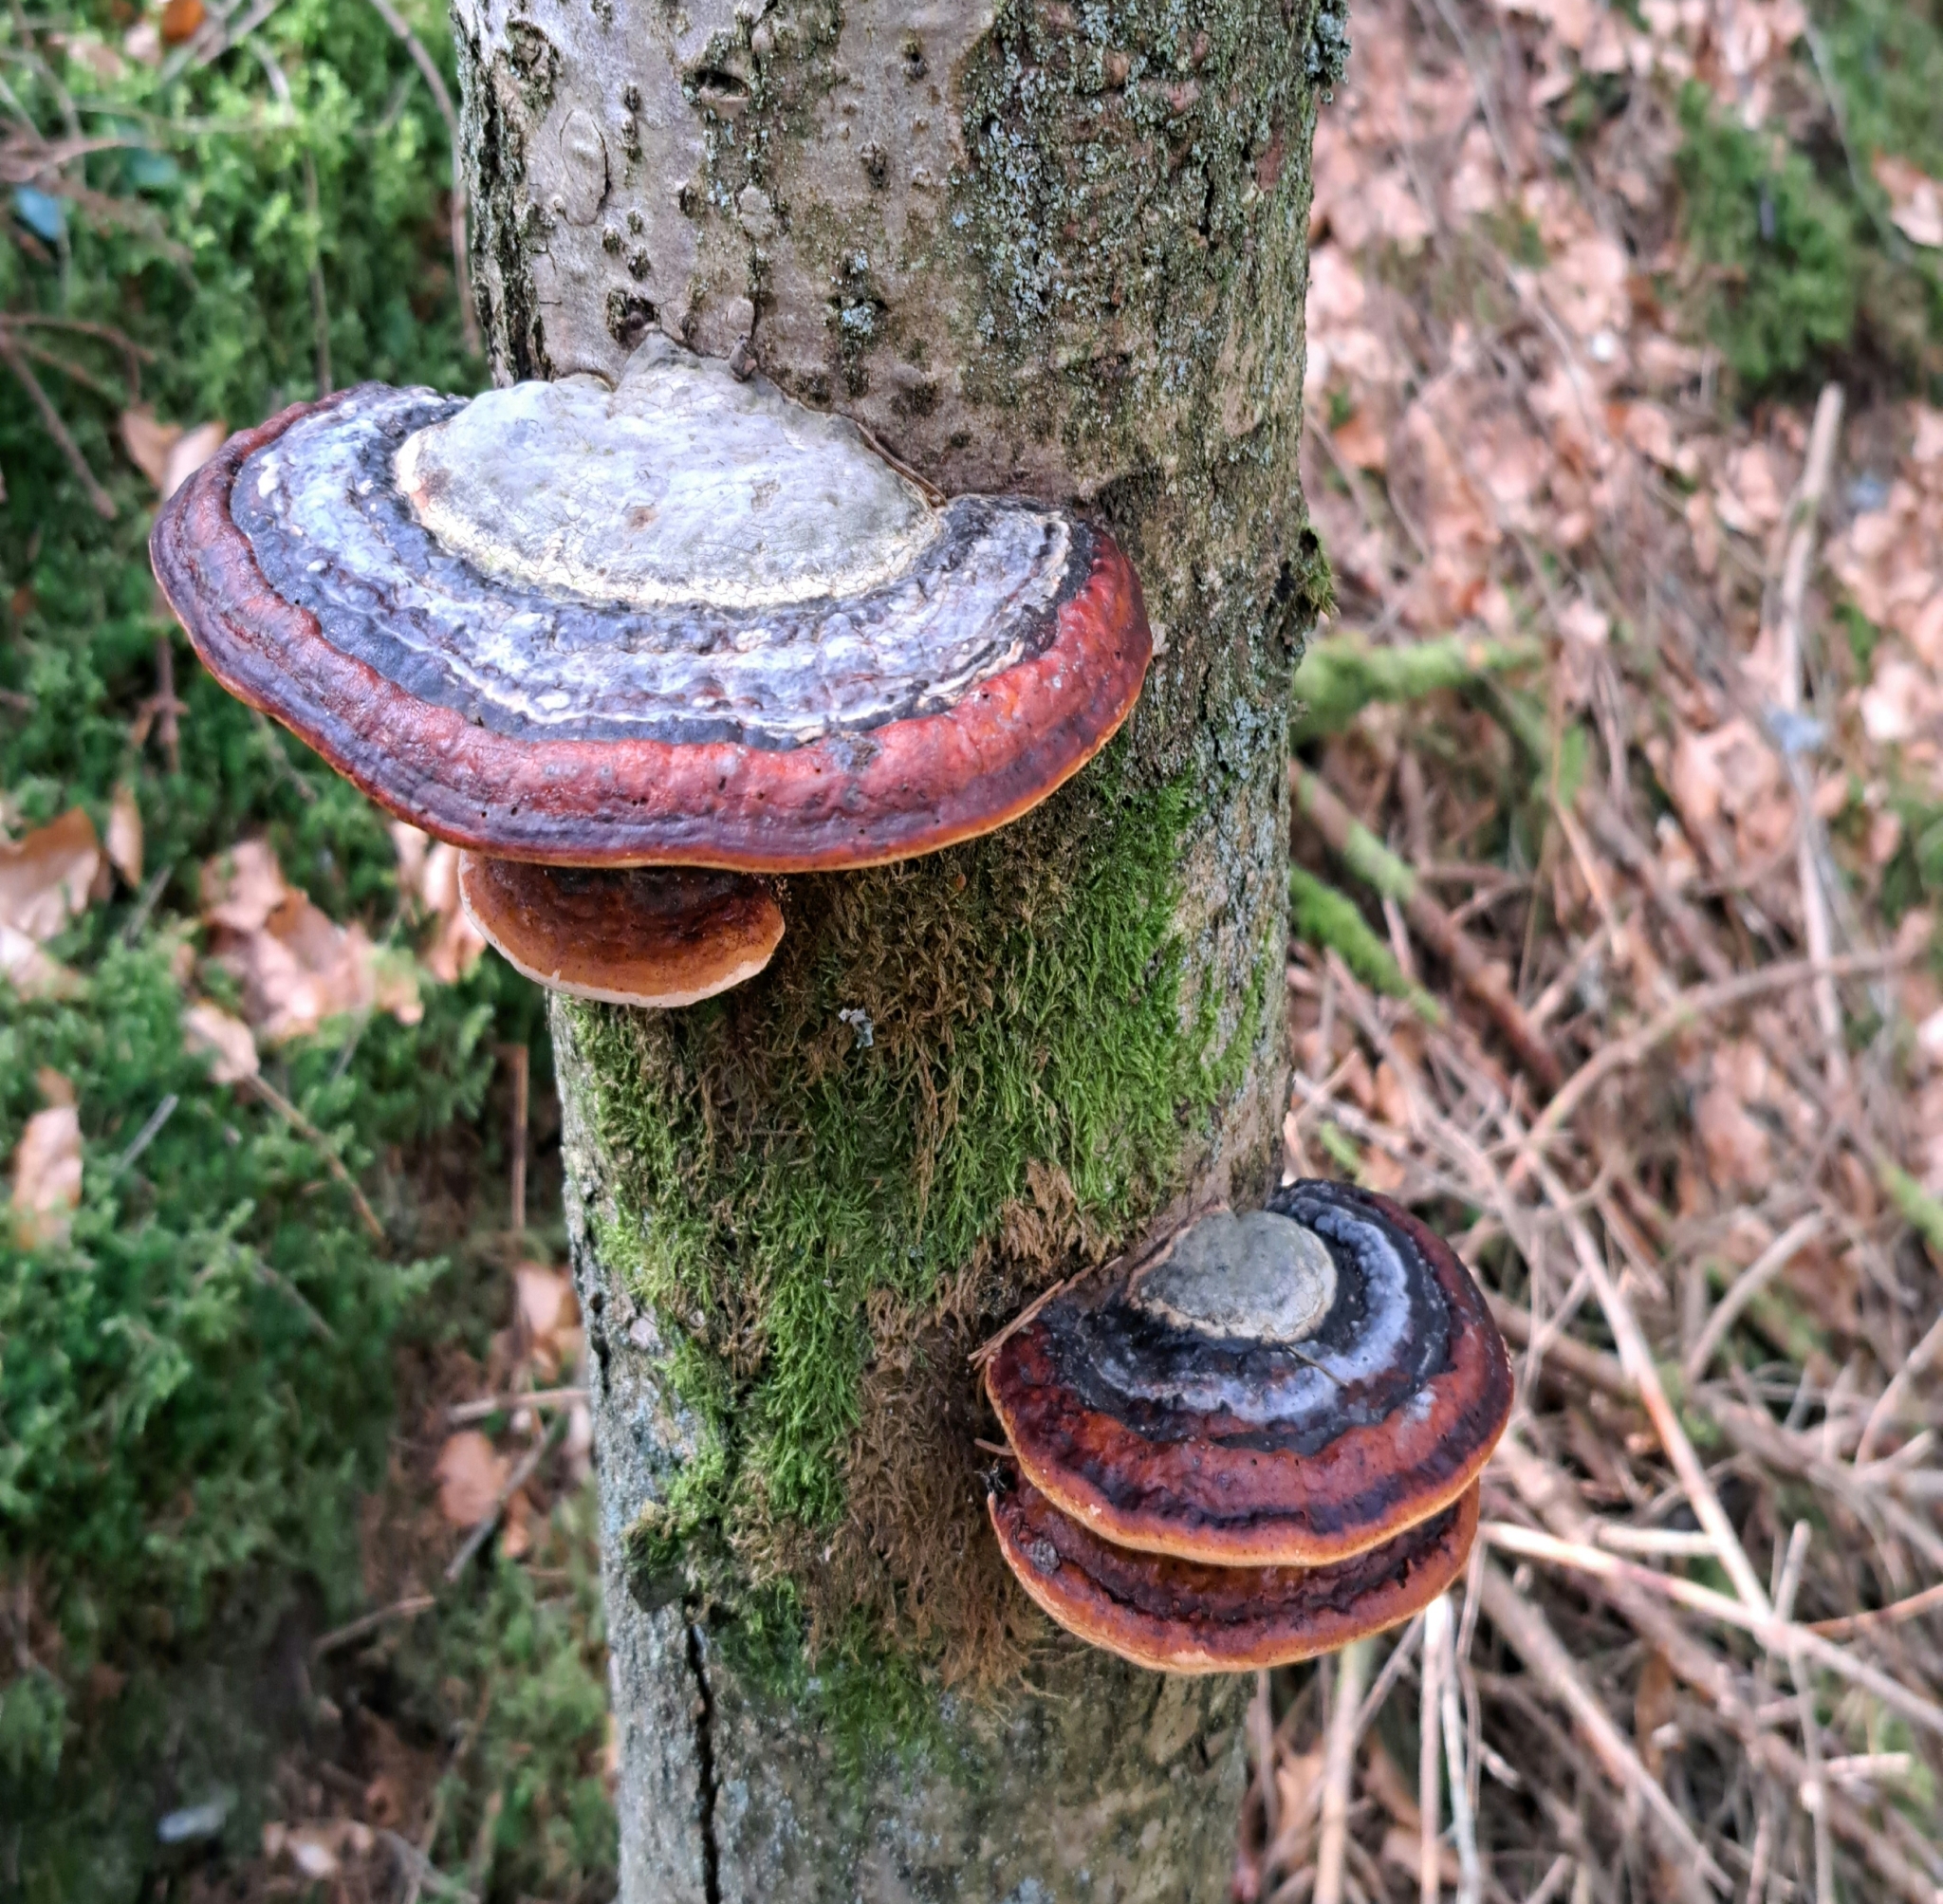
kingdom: Fungi
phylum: Basidiomycota
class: Agaricomycetes
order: Polyporales
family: Fomitopsidaceae
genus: Fomitopsis
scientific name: Fomitopsis pinicola
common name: Red-belted bracket
